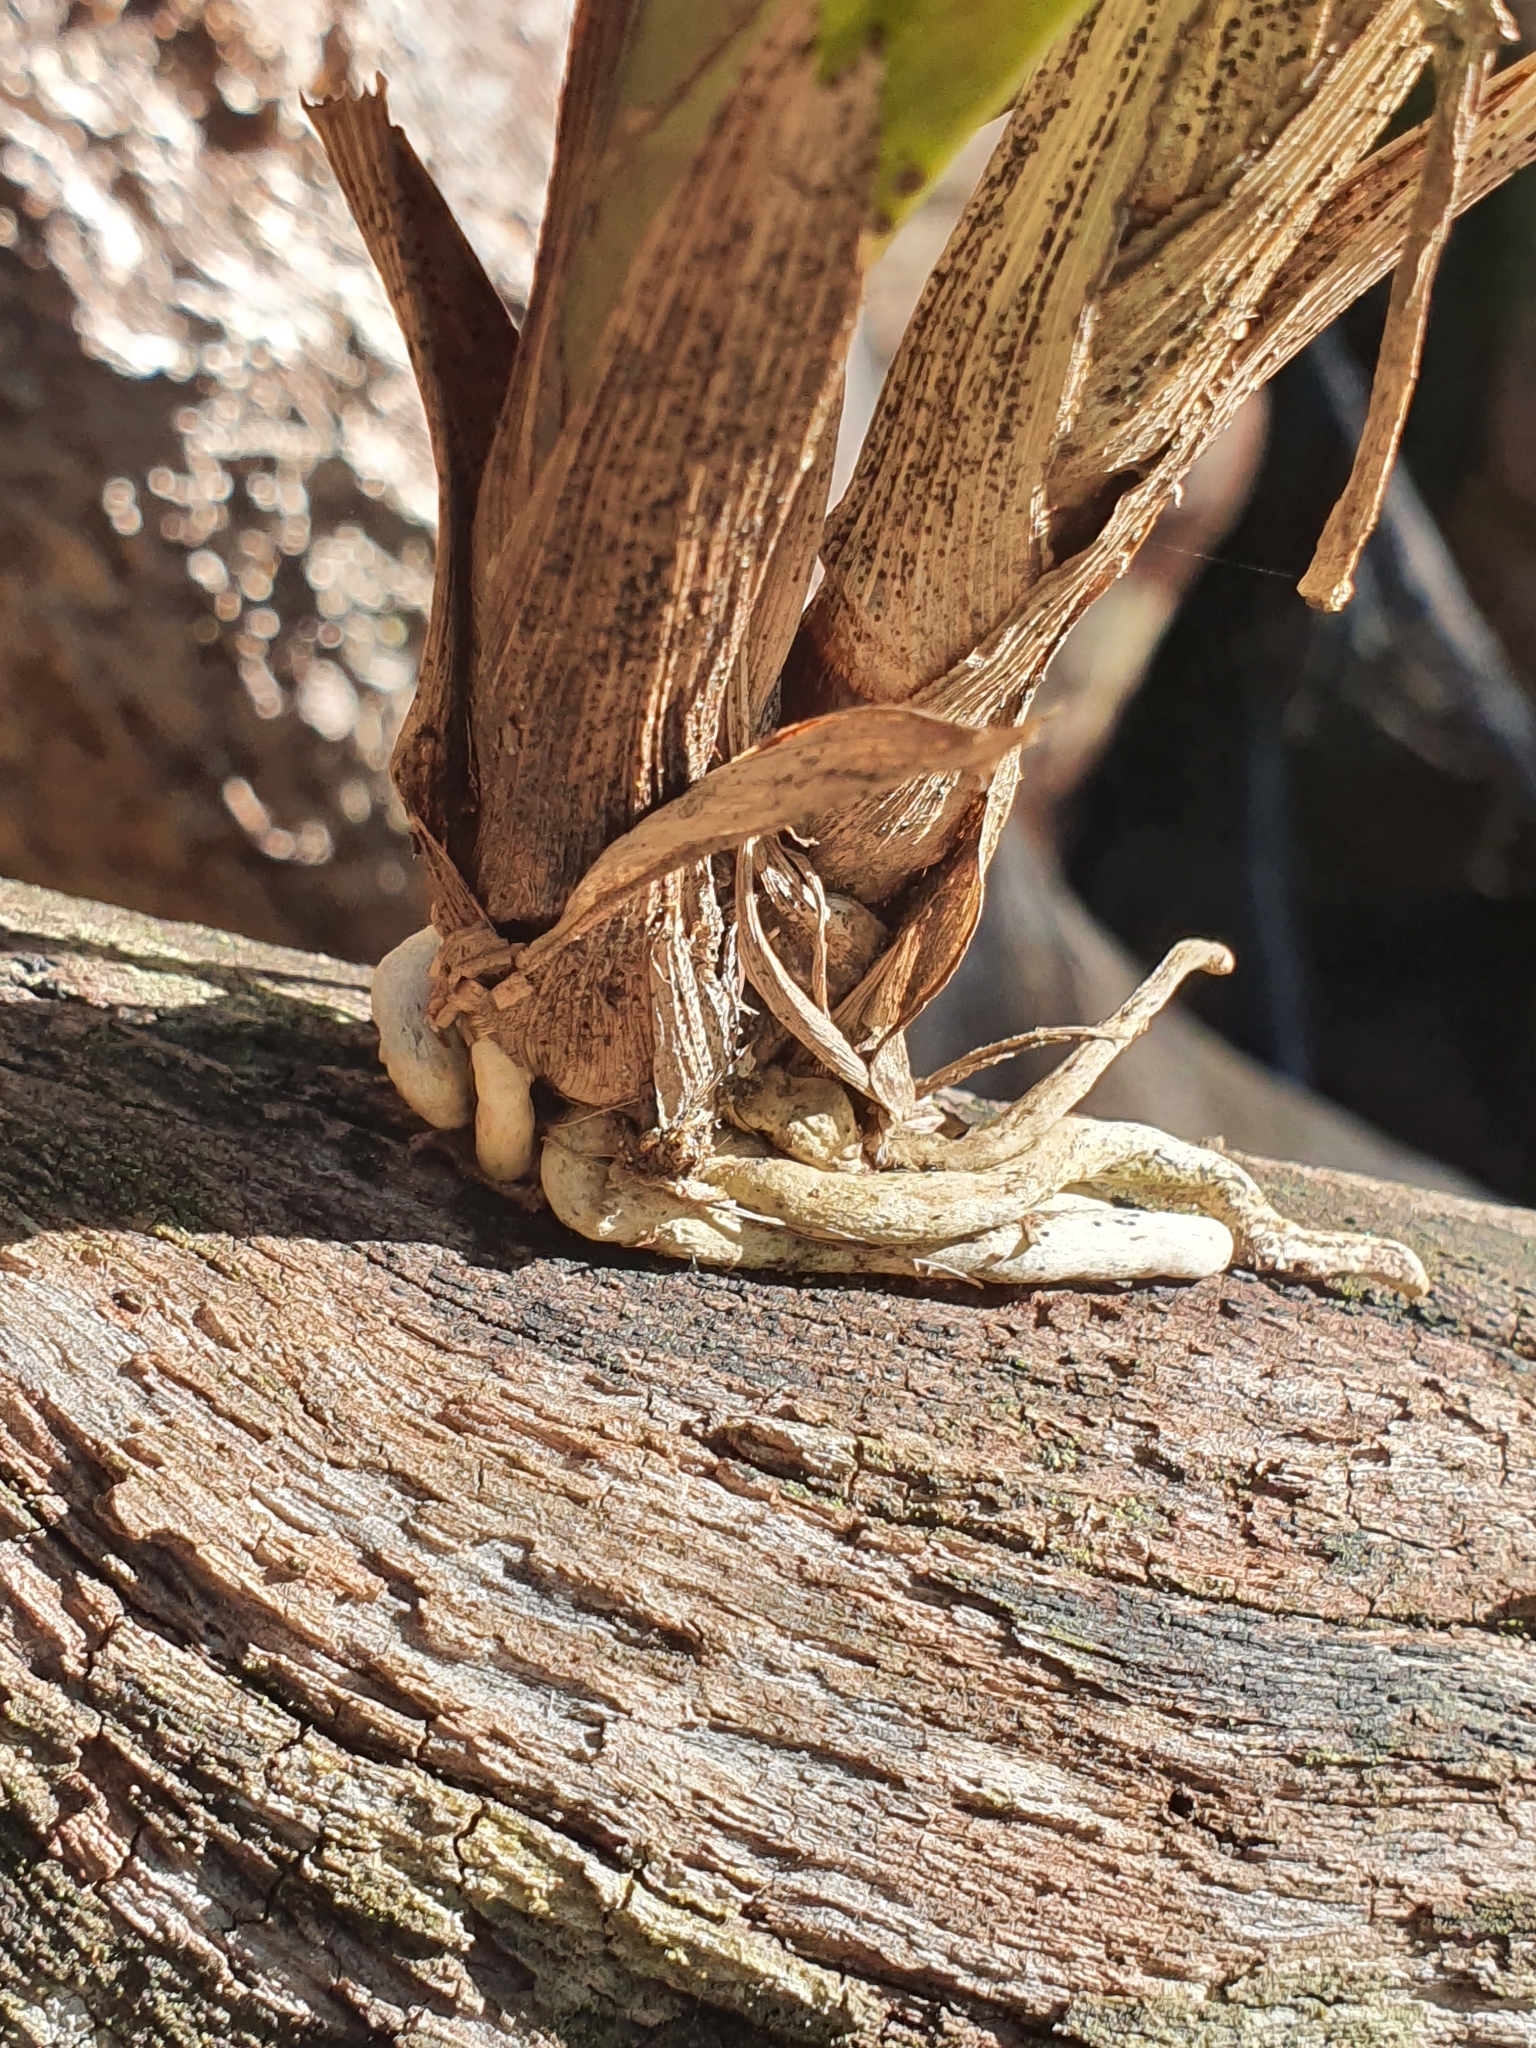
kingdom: Plantae
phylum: Tracheophyta
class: Liliopsida
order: Asparagales
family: Orchidaceae
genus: Cymbidium
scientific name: Cymbidium suave
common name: Snake orchid
